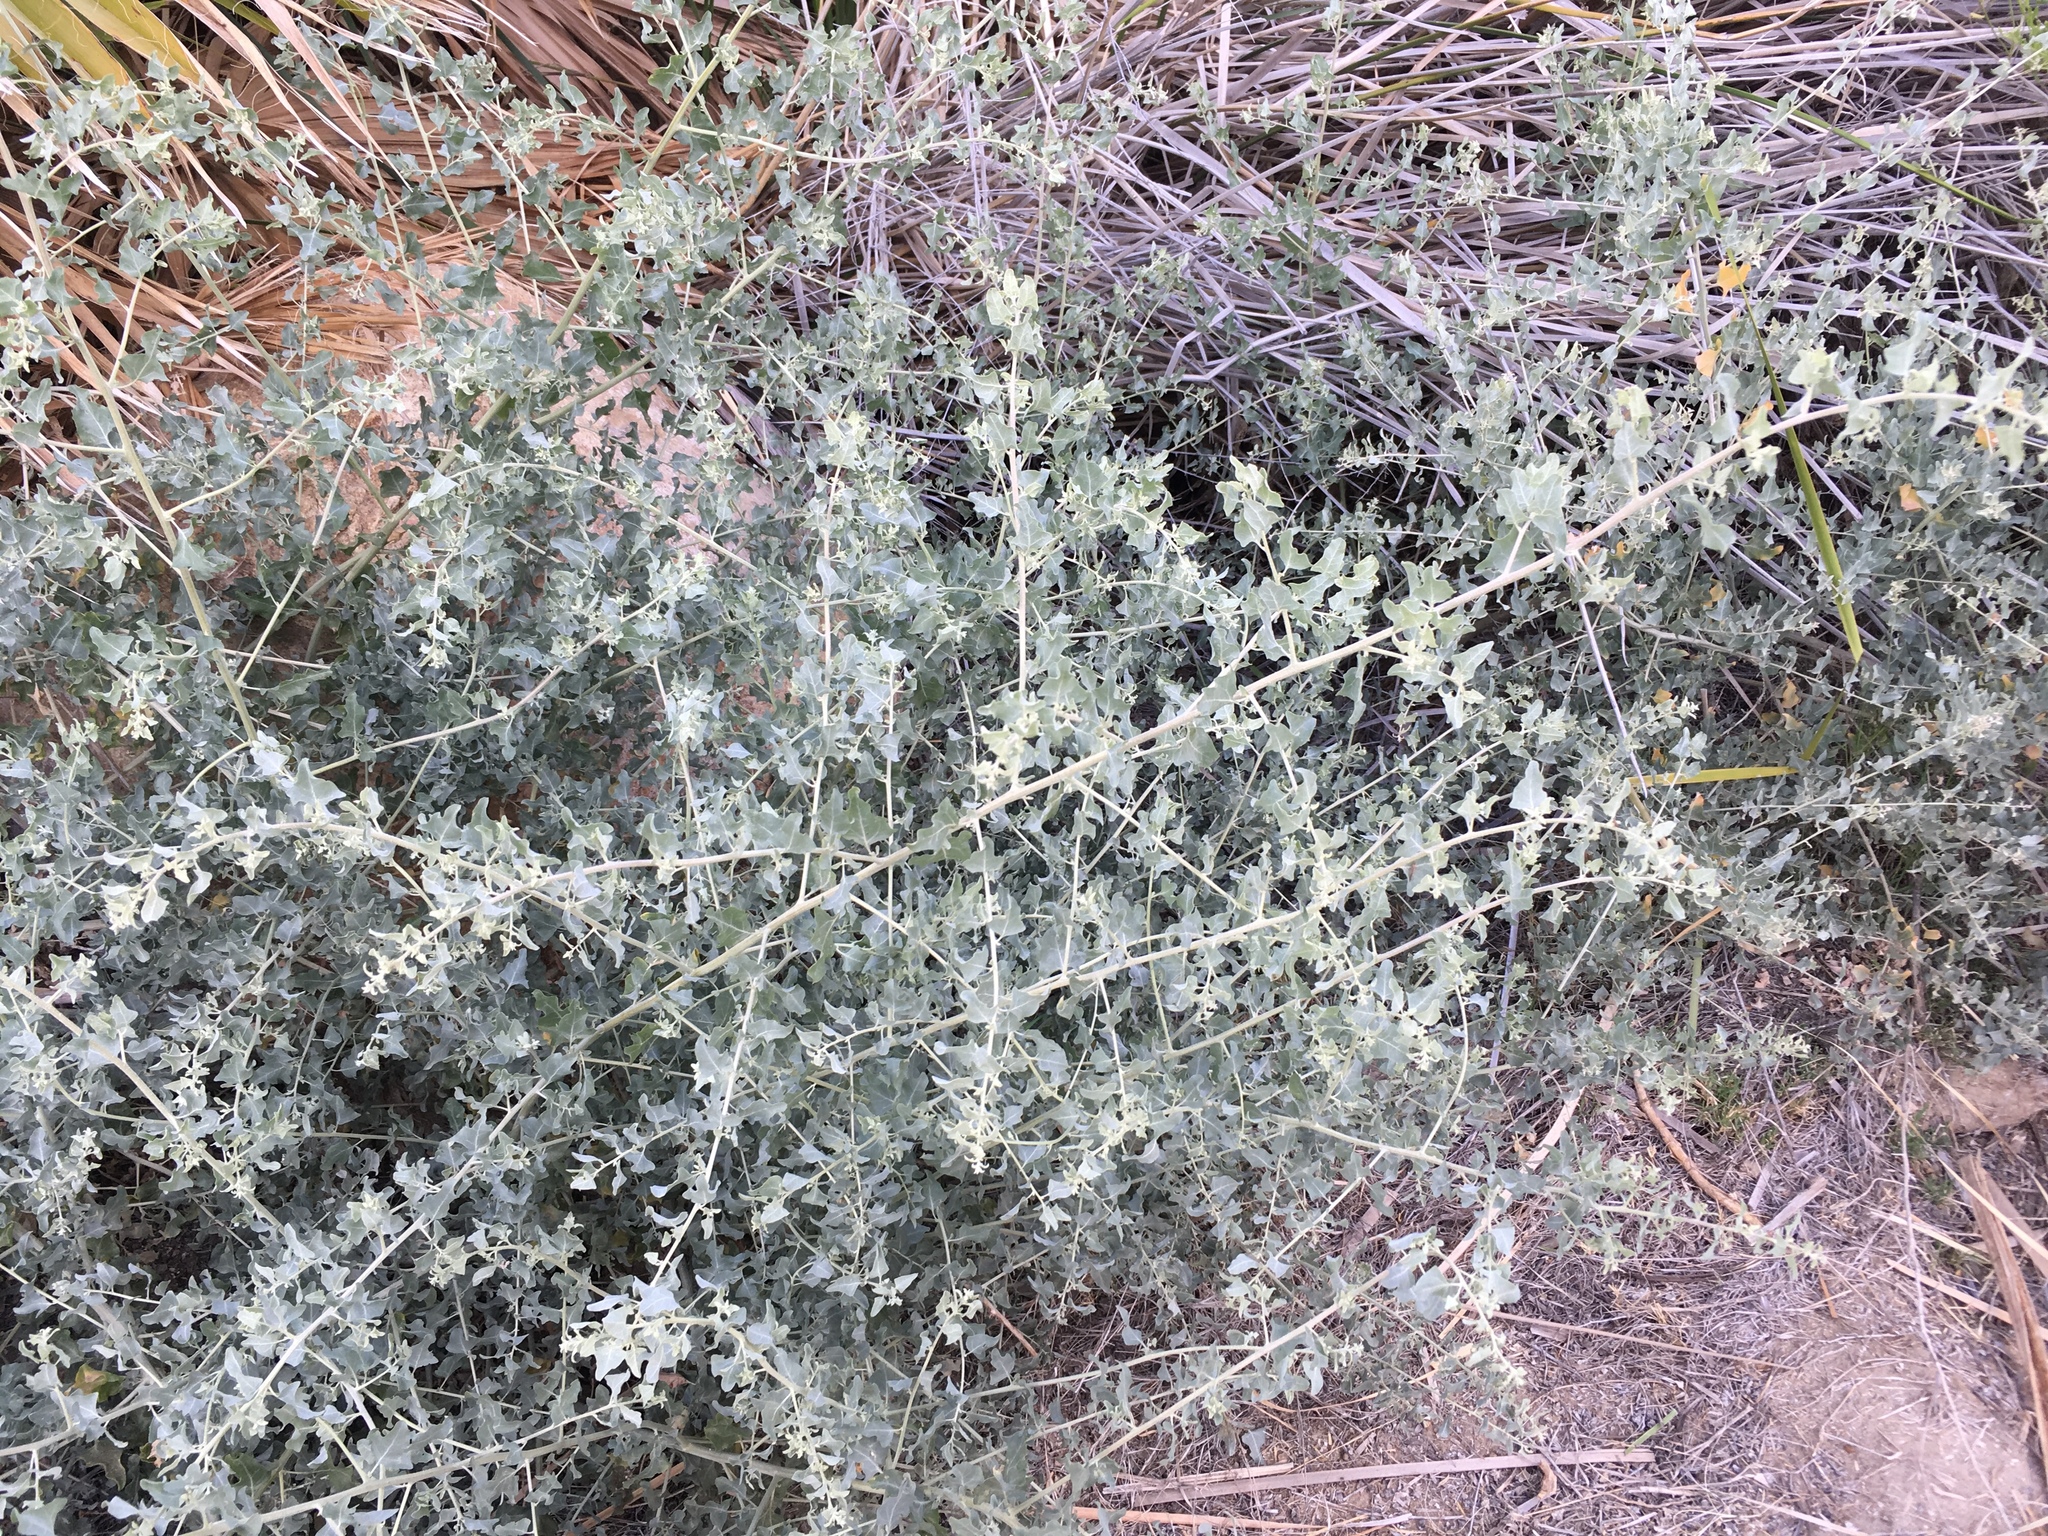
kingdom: Plantae
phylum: Tracheophyta
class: Magnoliopsida
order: Caryophyllales
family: Amaranthaceae
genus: Atriplex
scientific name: Atriplex lentiformis
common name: Big saltbush
